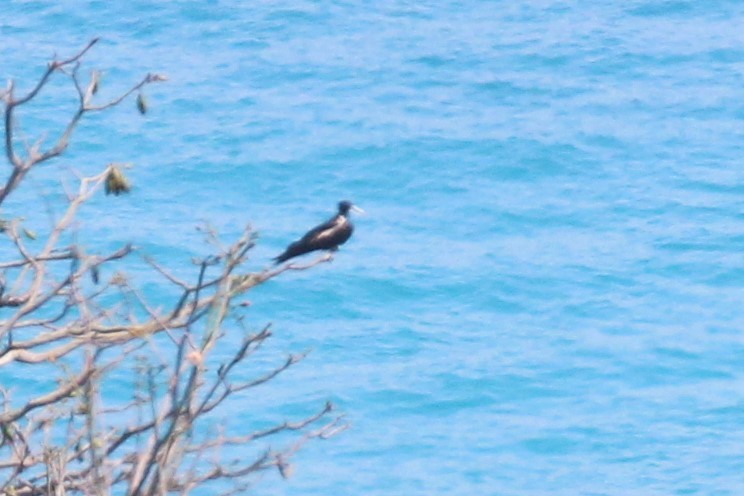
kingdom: Animalia
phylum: Chordata
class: Aves
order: Suliformes
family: Fregatidae
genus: Fregata
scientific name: Fregata magnificens
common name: Magnificent frigatebird
